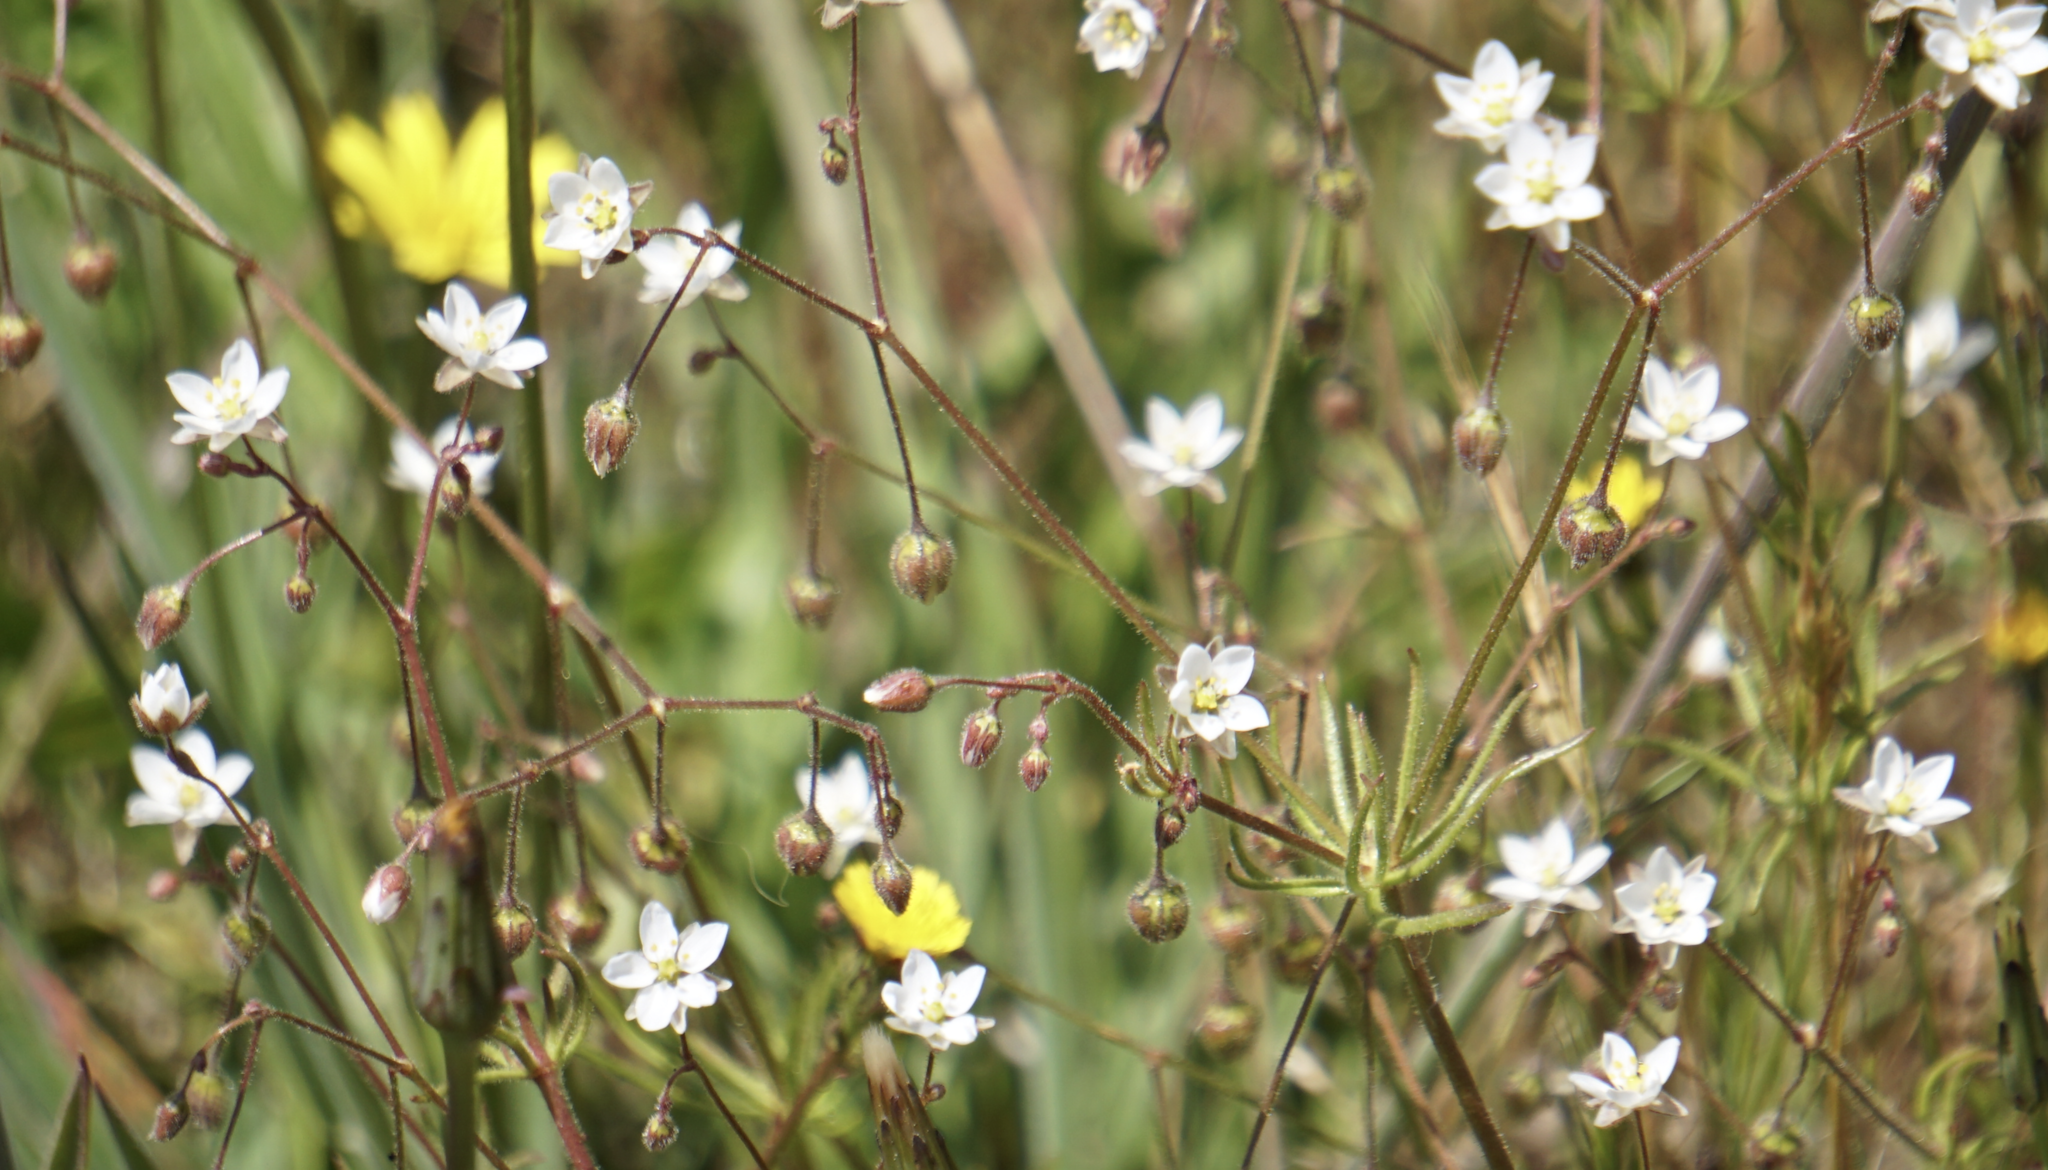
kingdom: Plantae
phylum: Tracheophyta
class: Magnoliopsida
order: Caryophyllales
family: Caryophyllaceae
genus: Spergula
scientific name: Spergula arvensis
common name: Corn spurrey
